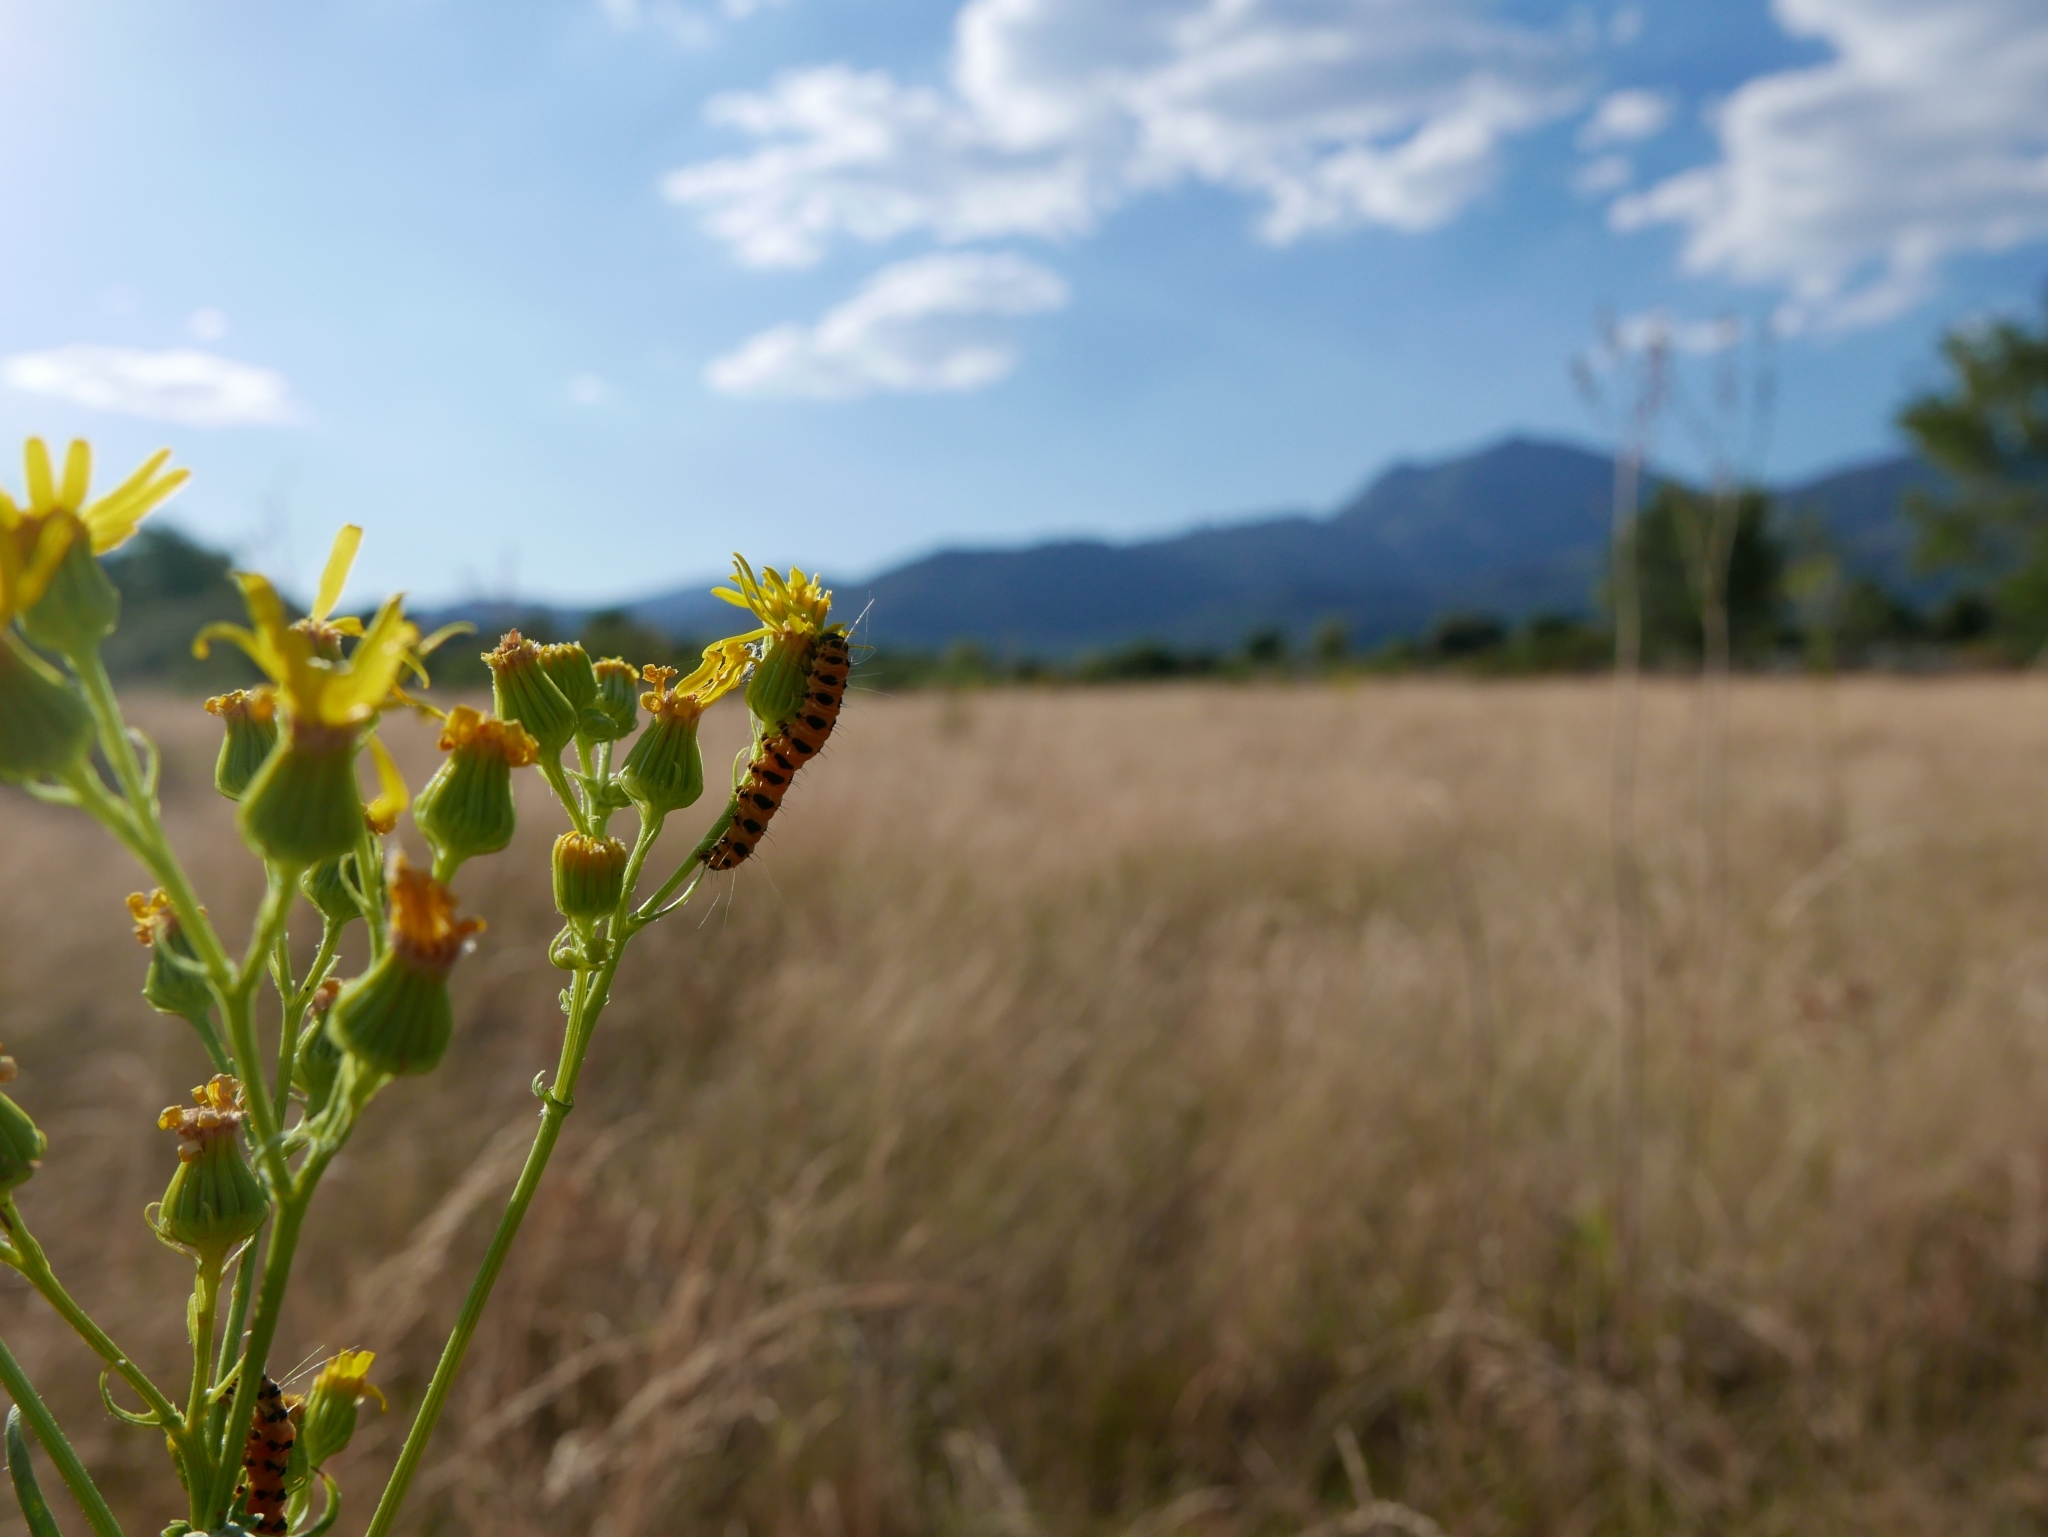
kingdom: Animalia
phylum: Arthropoda
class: Insecta
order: Lepidoptera
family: Erebidae
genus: Tyria
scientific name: Tyria jacobaeae
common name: Cinnabar
